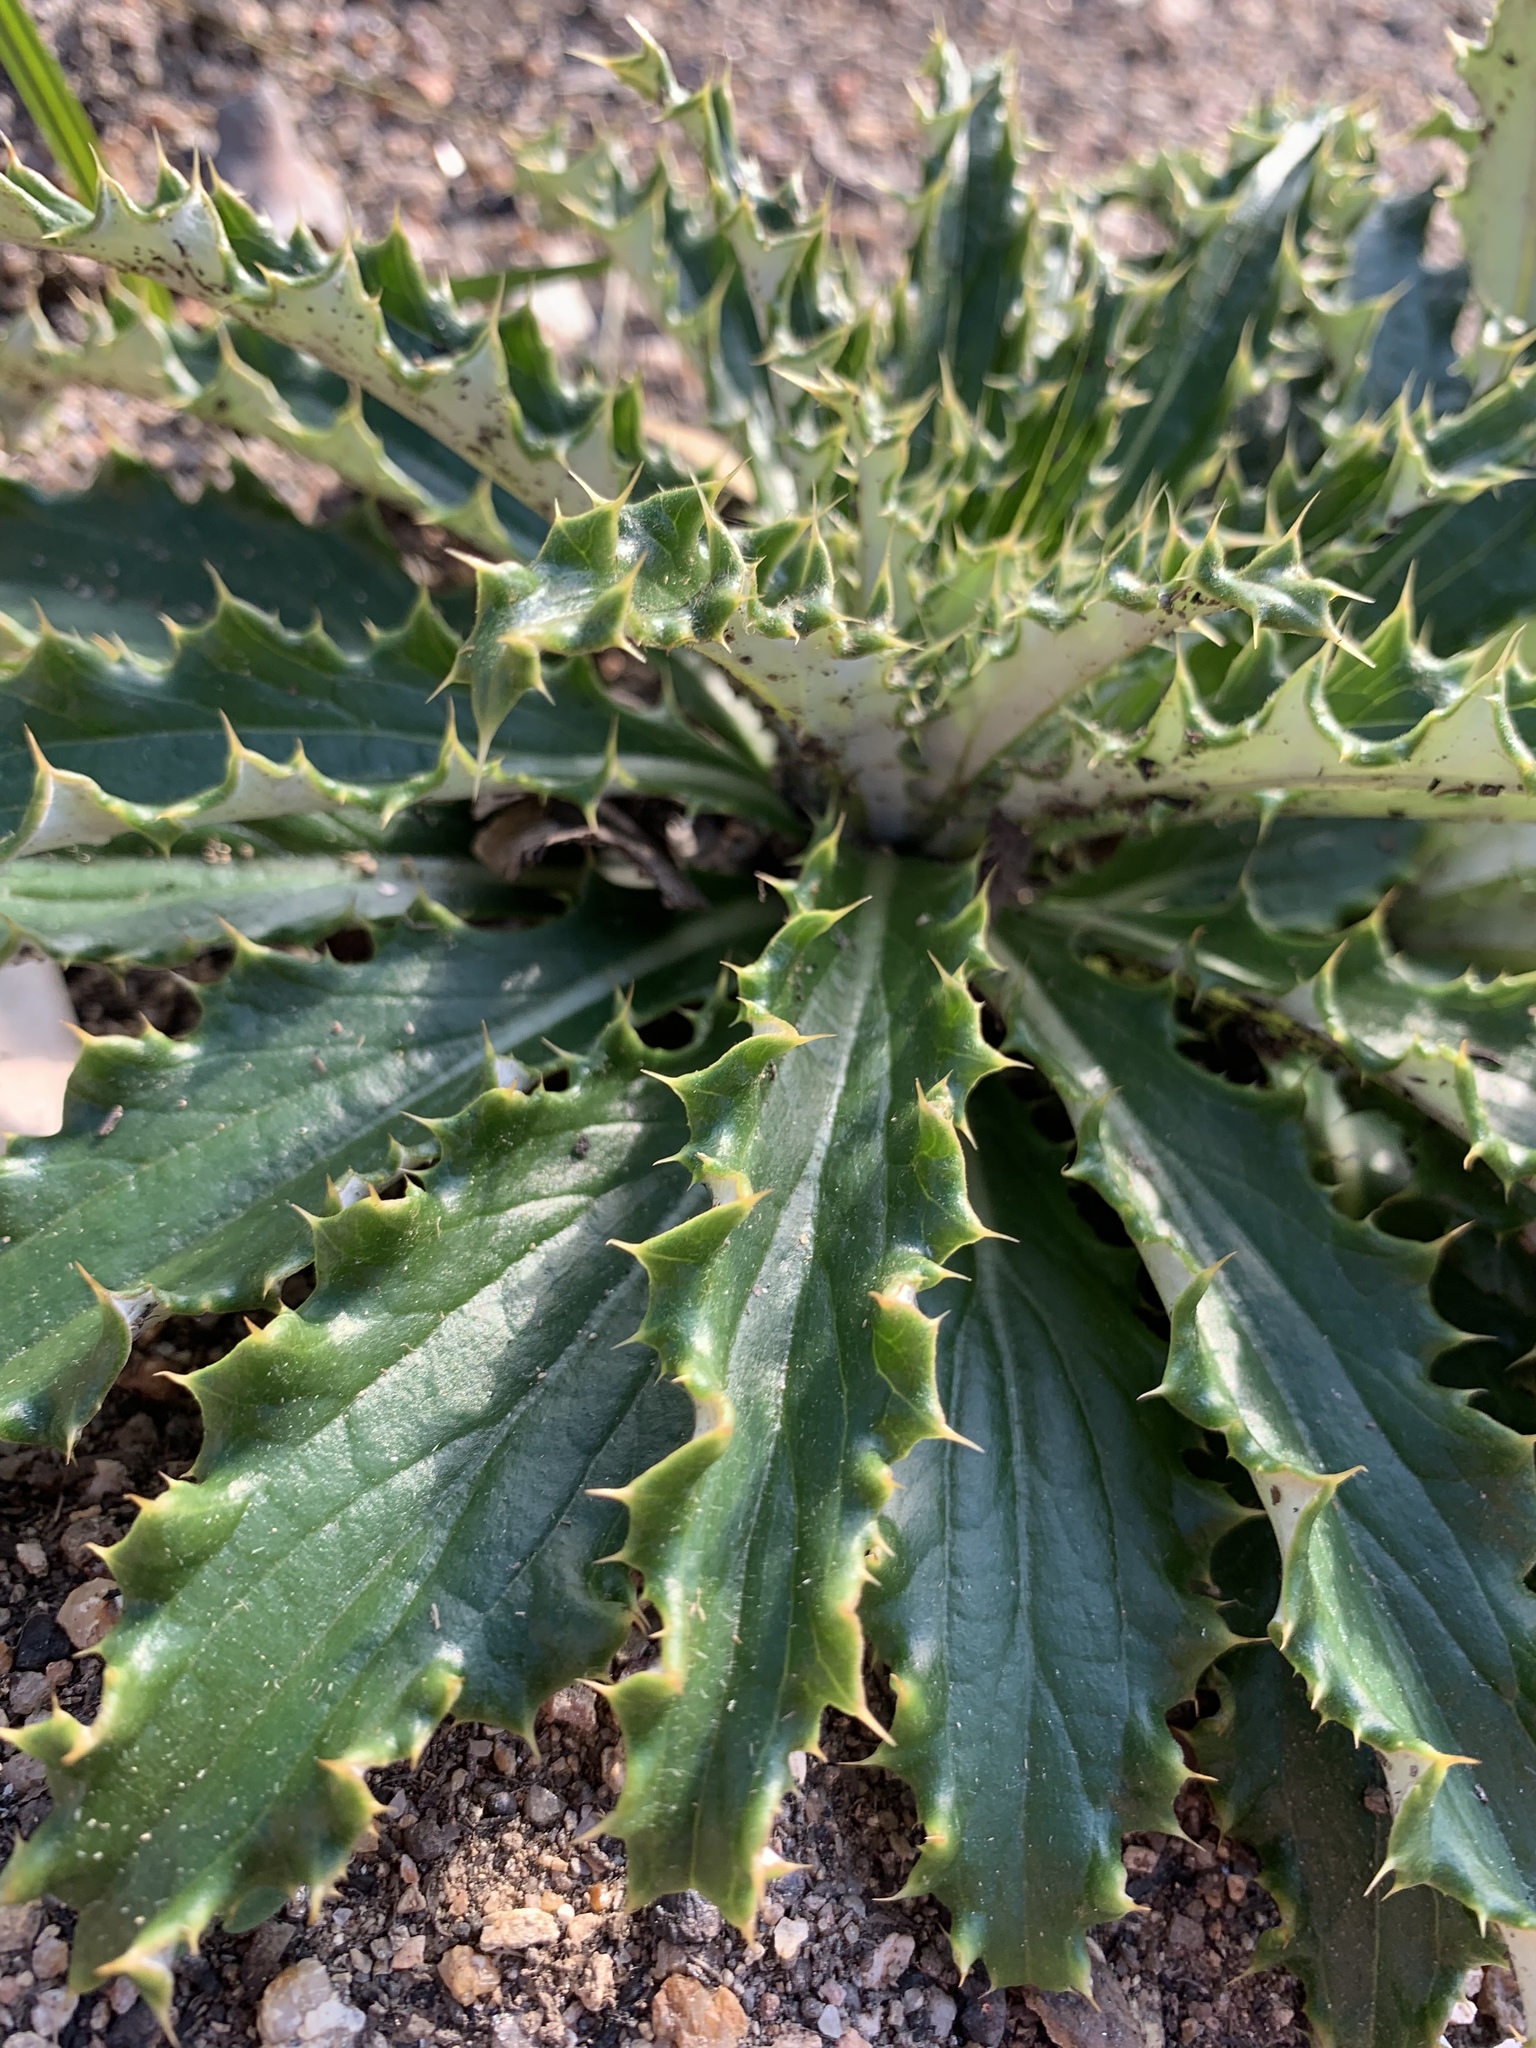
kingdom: Plantae
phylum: Tracheophyta
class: Magnoliopsida
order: Asterales
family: Asteraceae
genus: Berkheya
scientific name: Berkheya armata
